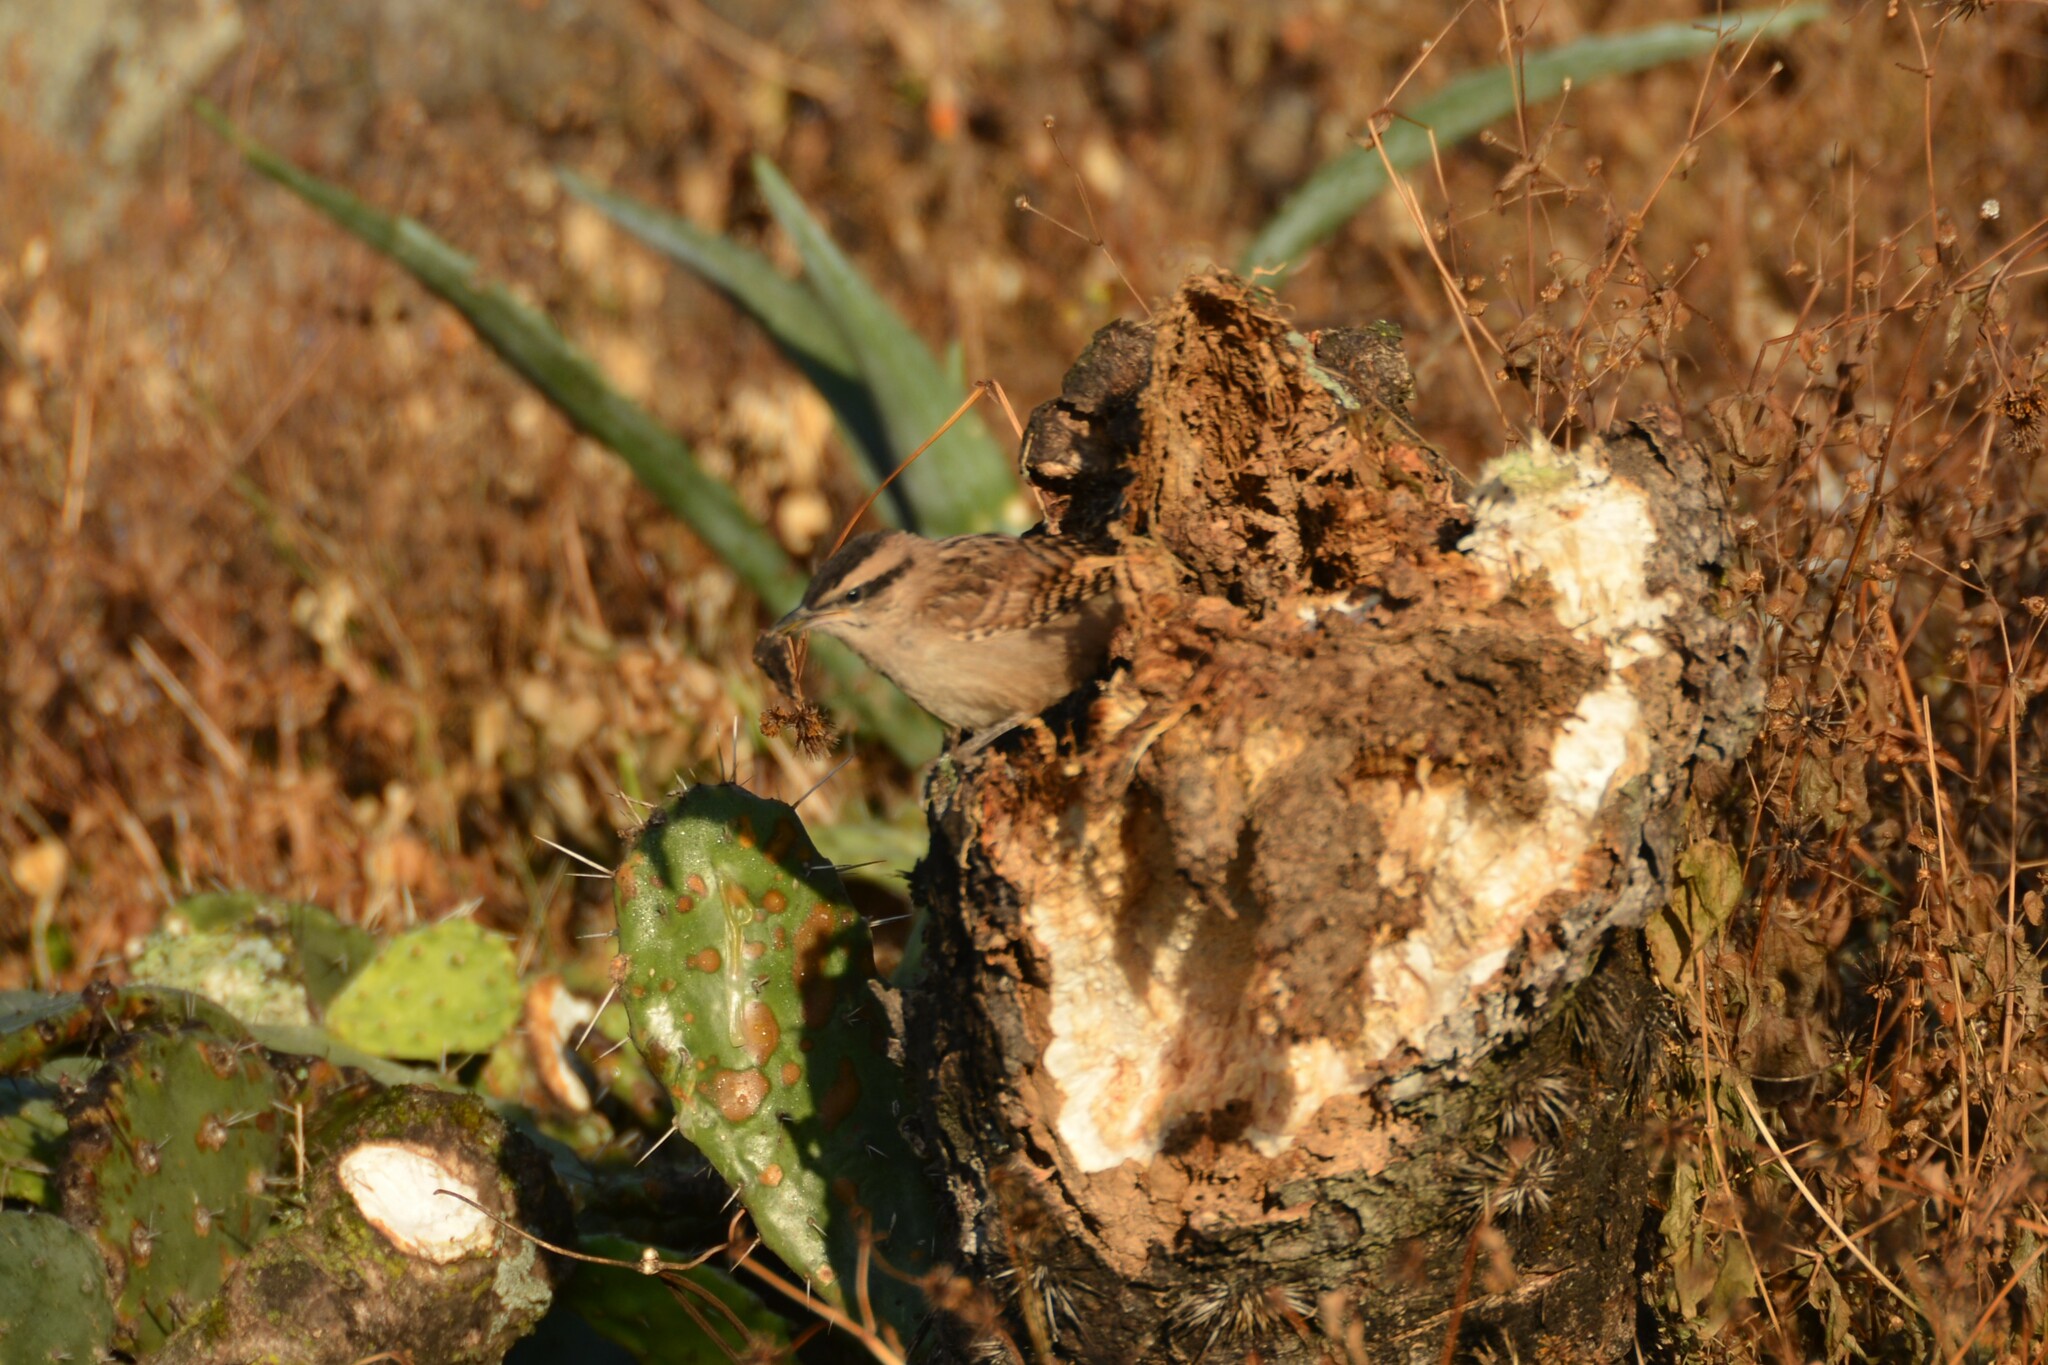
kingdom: Animalia
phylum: Chordata
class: Aves
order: Passeriformes
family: Troglodytidae
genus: Campylorhynchus
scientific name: Campylorhynchus gularis
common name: Spotted wren
